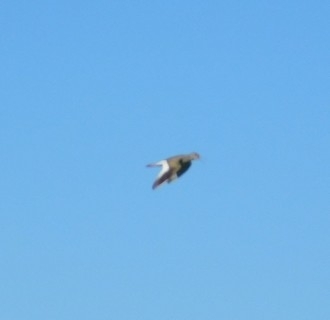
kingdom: Animalia
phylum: Chordata
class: Aves
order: Charadriiformes
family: Scolopacidae
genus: Tringa
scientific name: Tringa totanus
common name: Common redshank
